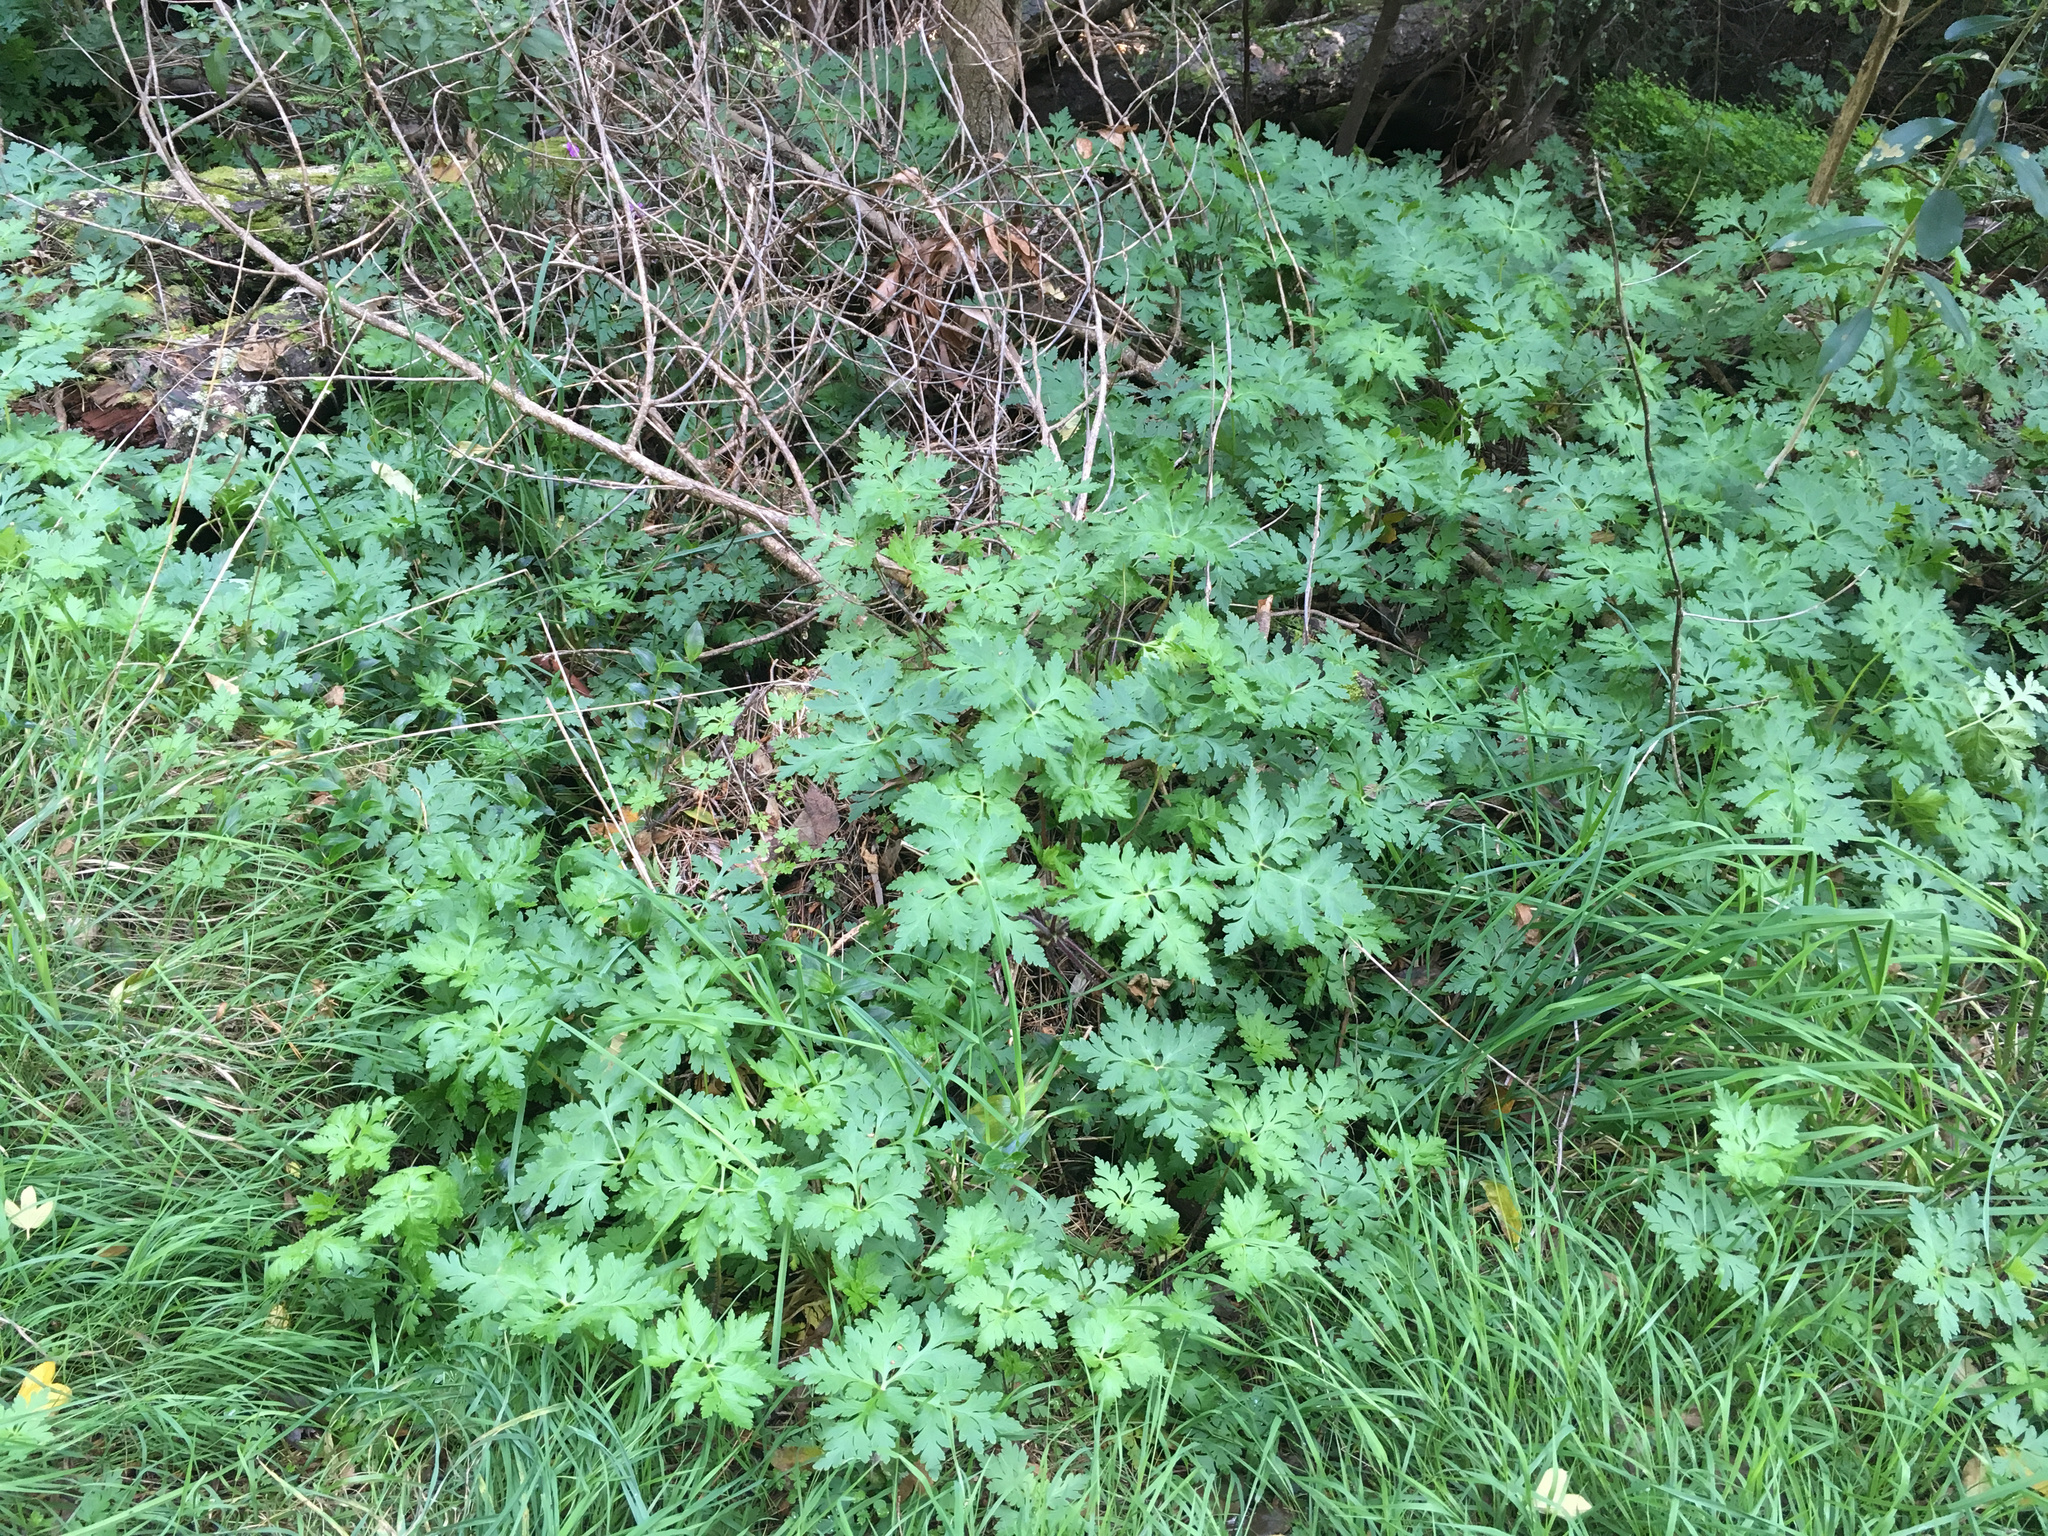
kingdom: Plantae
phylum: Tracheophyta
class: Magnoliopsida
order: Geraniales
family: Geraniaceae
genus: Geranium
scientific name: Geranium yeoi
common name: Greater herb robert
